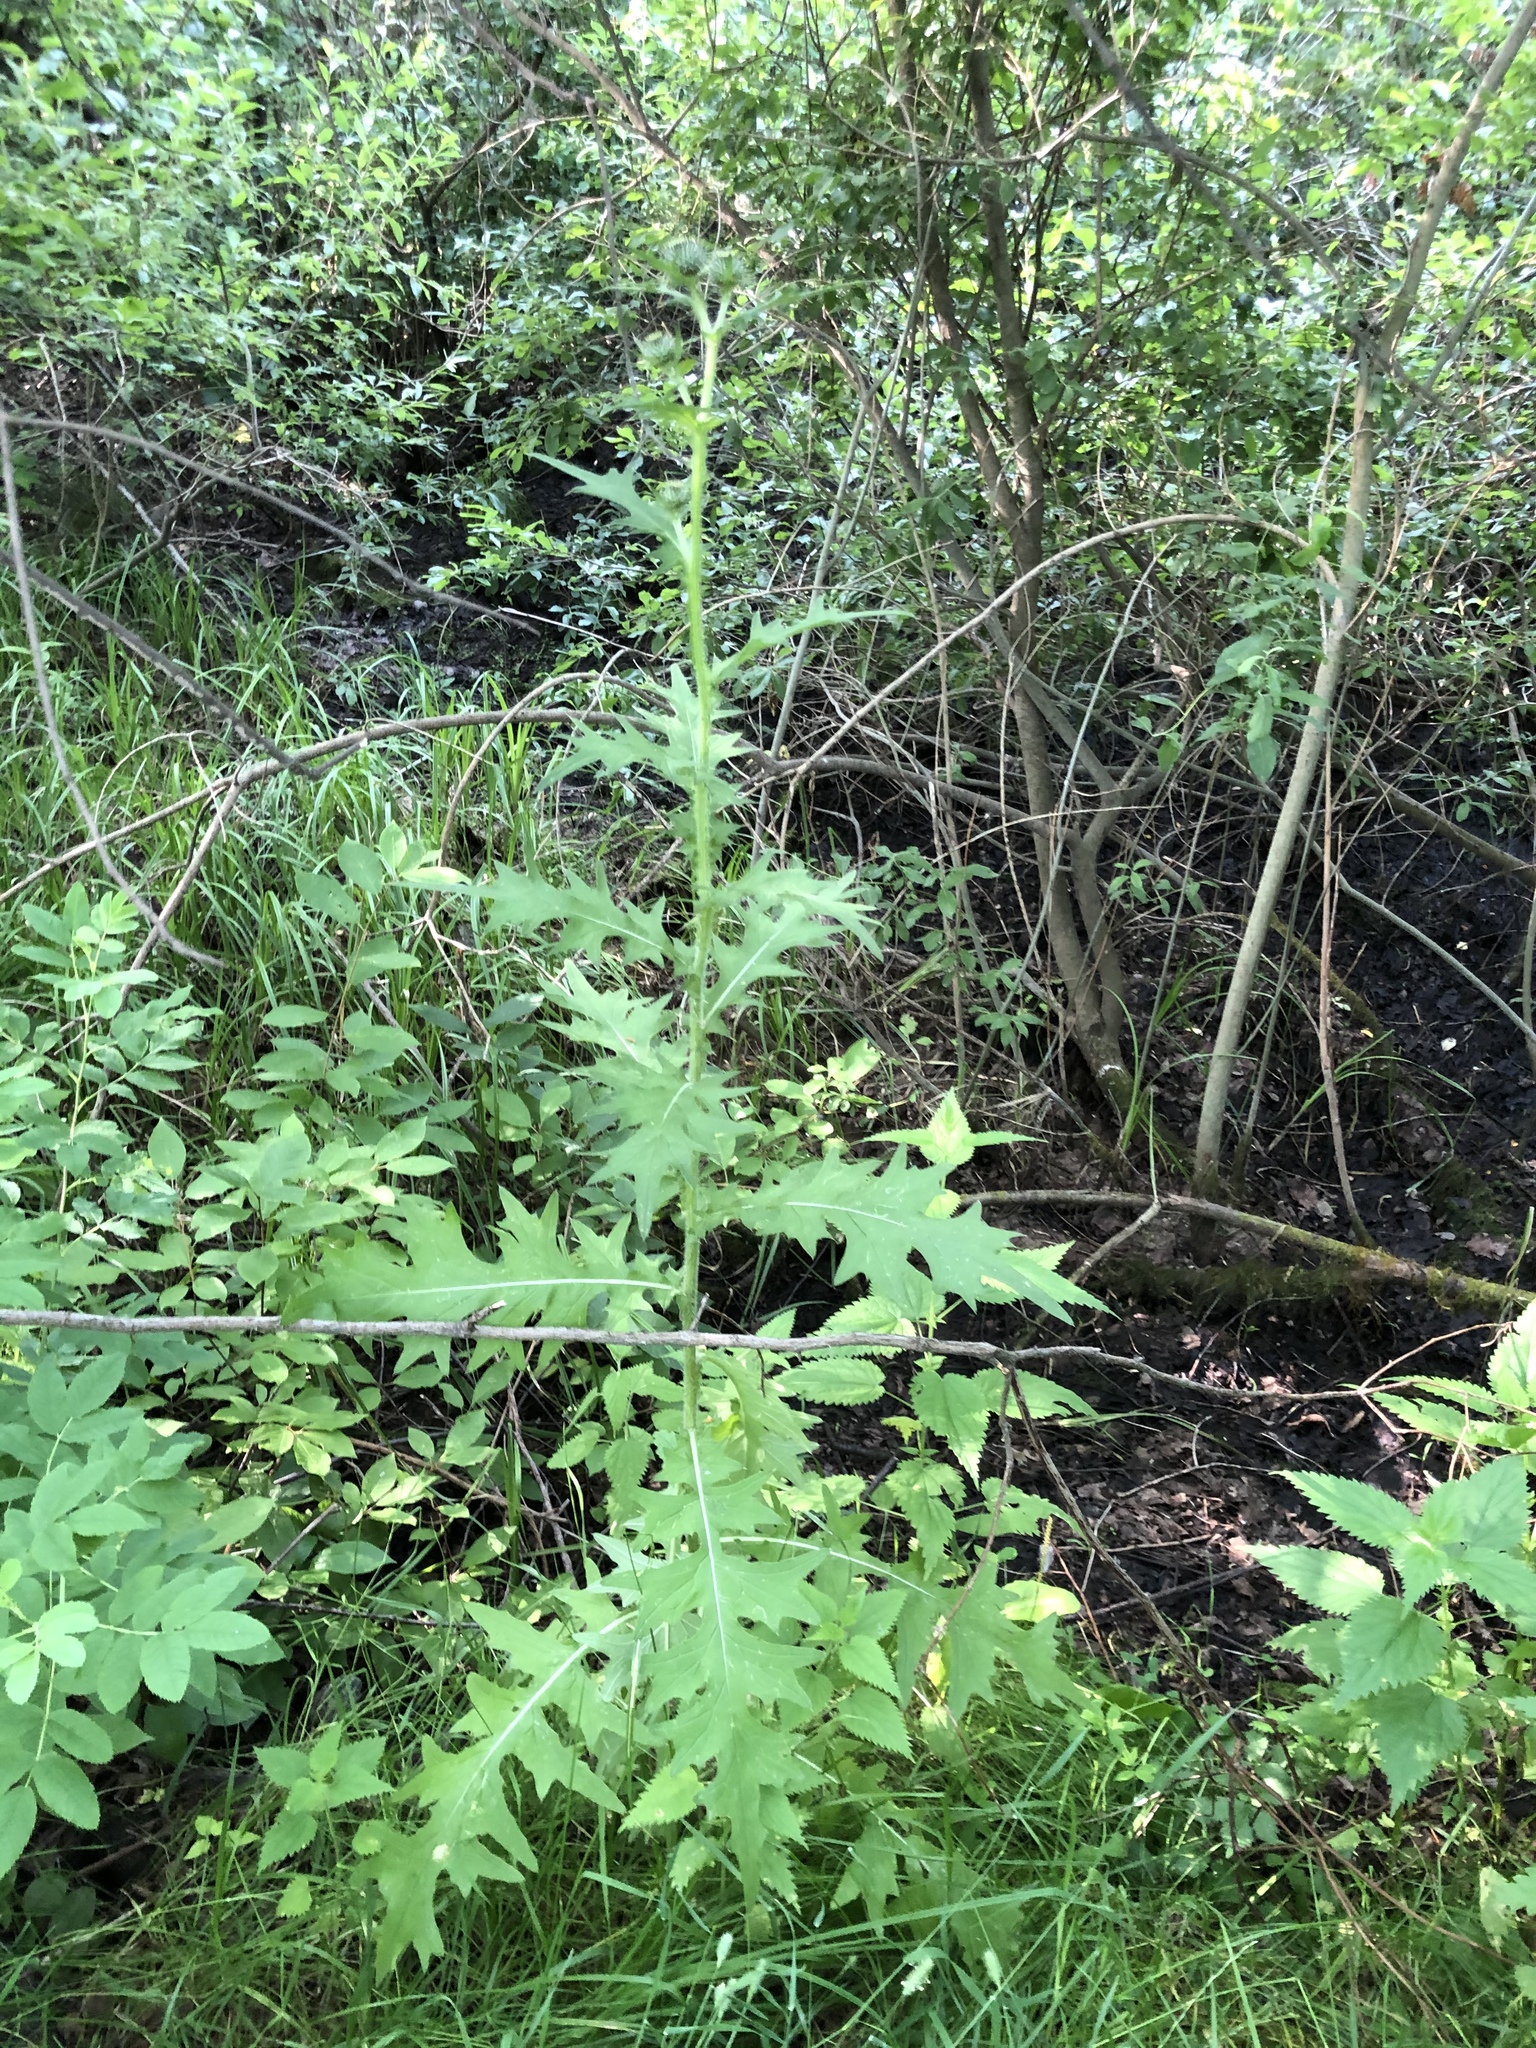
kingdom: Plantae
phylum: Tracheophyta
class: Magnoliopsida
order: Asterales
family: Asteraceae
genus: Cirsium
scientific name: Cirsium vulgare
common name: Bull thistle
